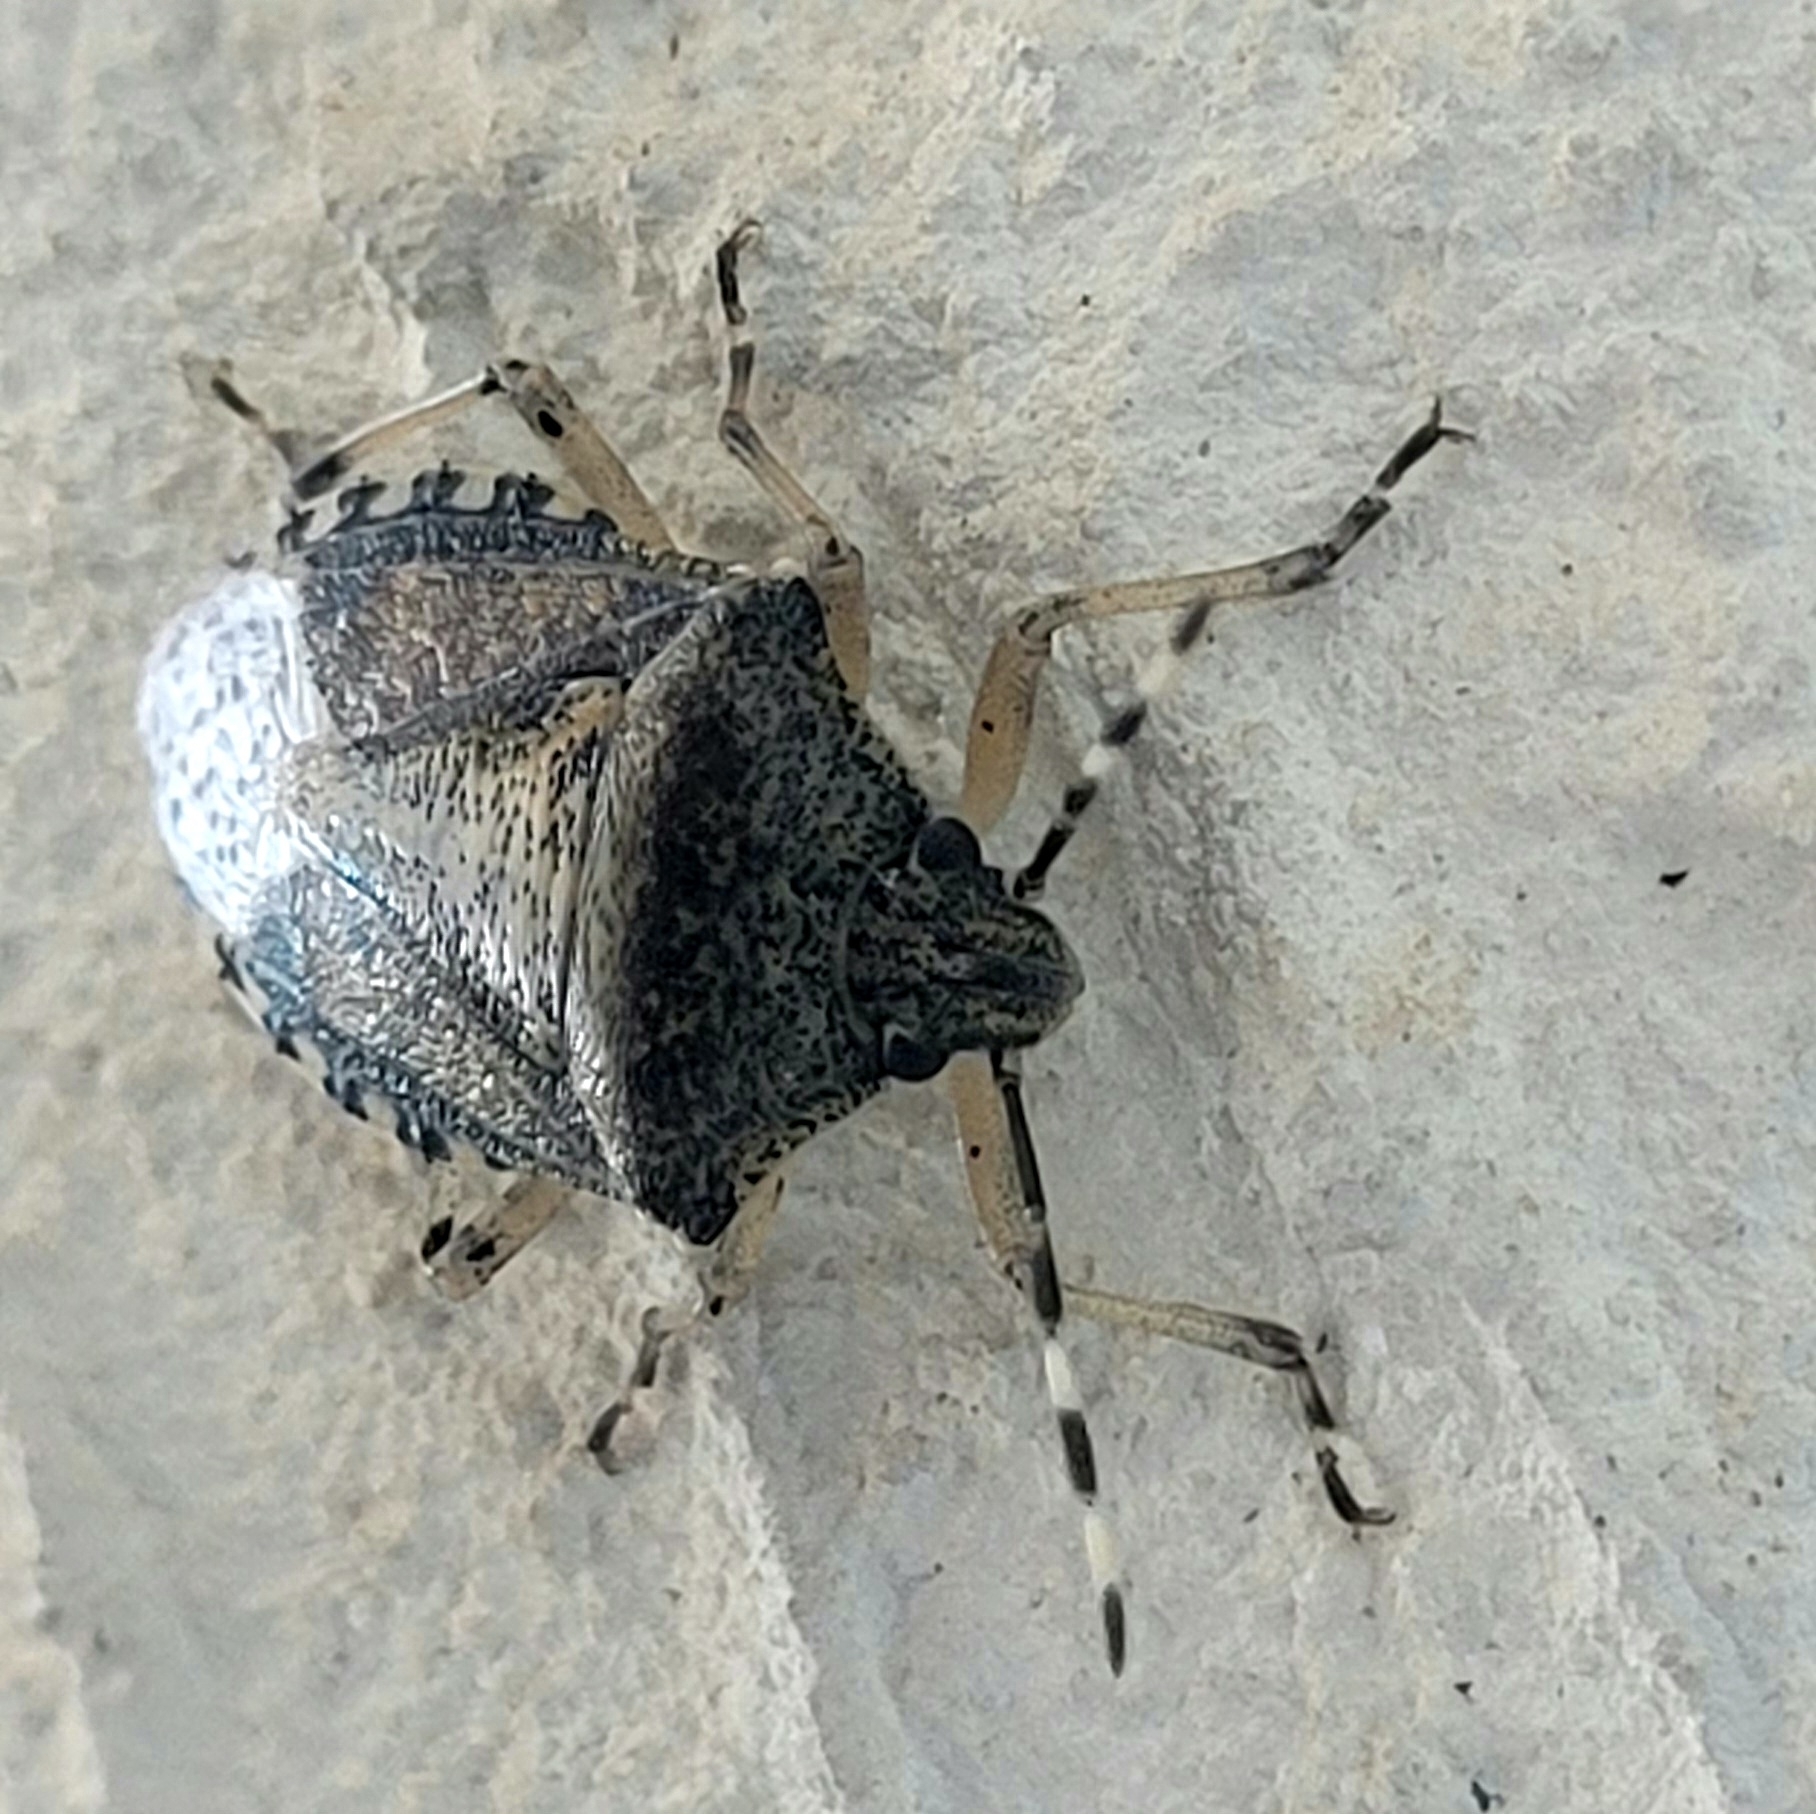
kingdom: Animalia
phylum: Arthropoda
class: Insecta
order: Hemiptera
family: Pentatomidae
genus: Rhaphigaster
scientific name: Rhaphigaster nebulosa
